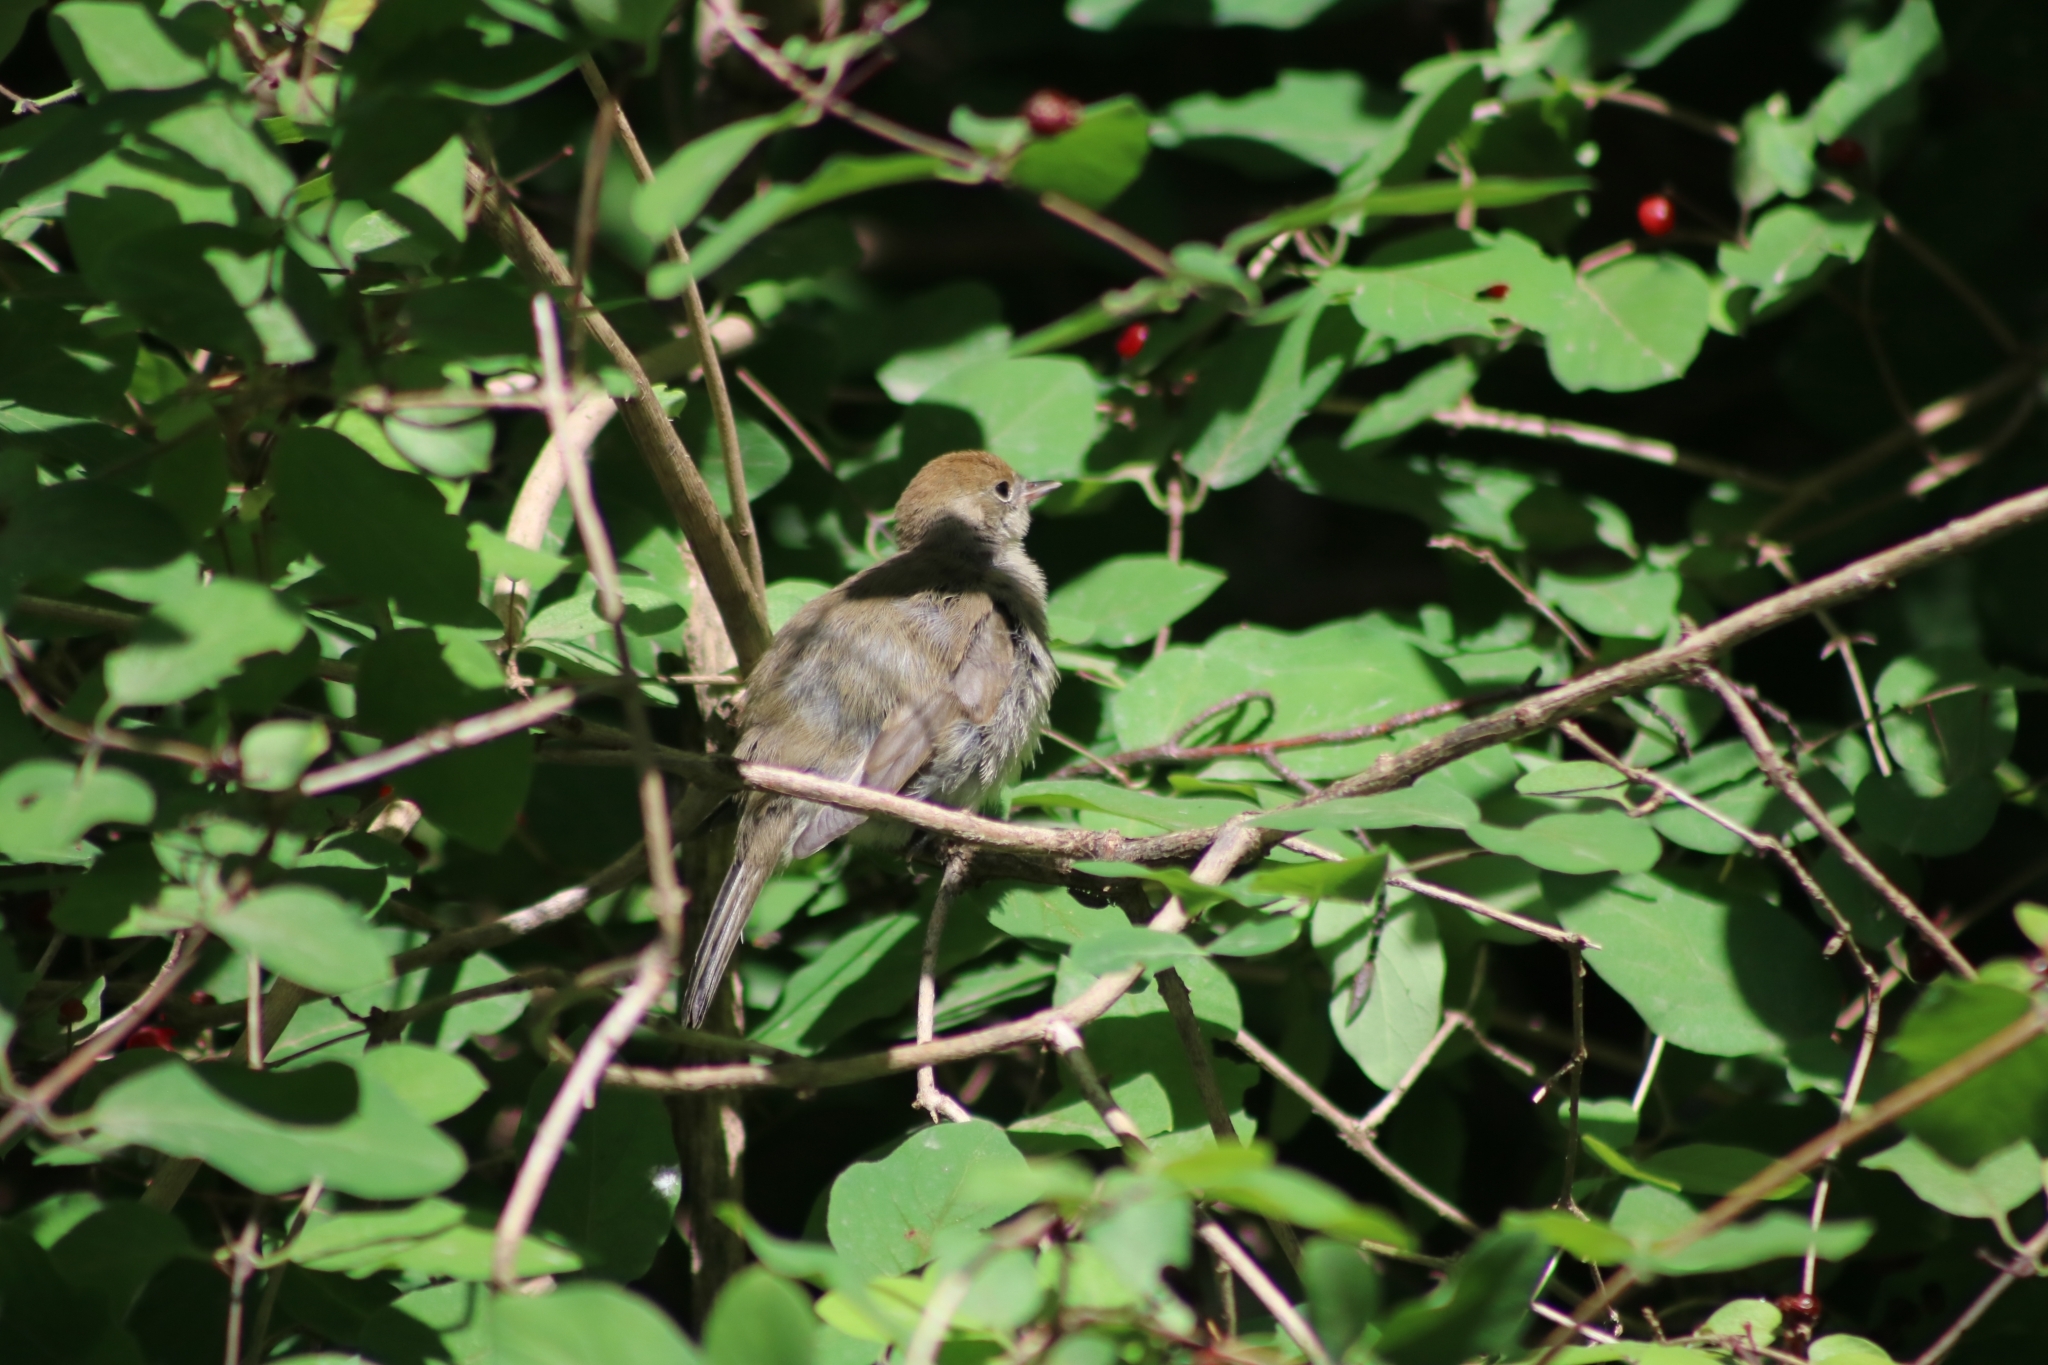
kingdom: Animalia
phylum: Chordata
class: Aves
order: Passeriformes
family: Sylviidae
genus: Sylvia
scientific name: Sylvia atricapilla
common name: Eurasian blackcap
